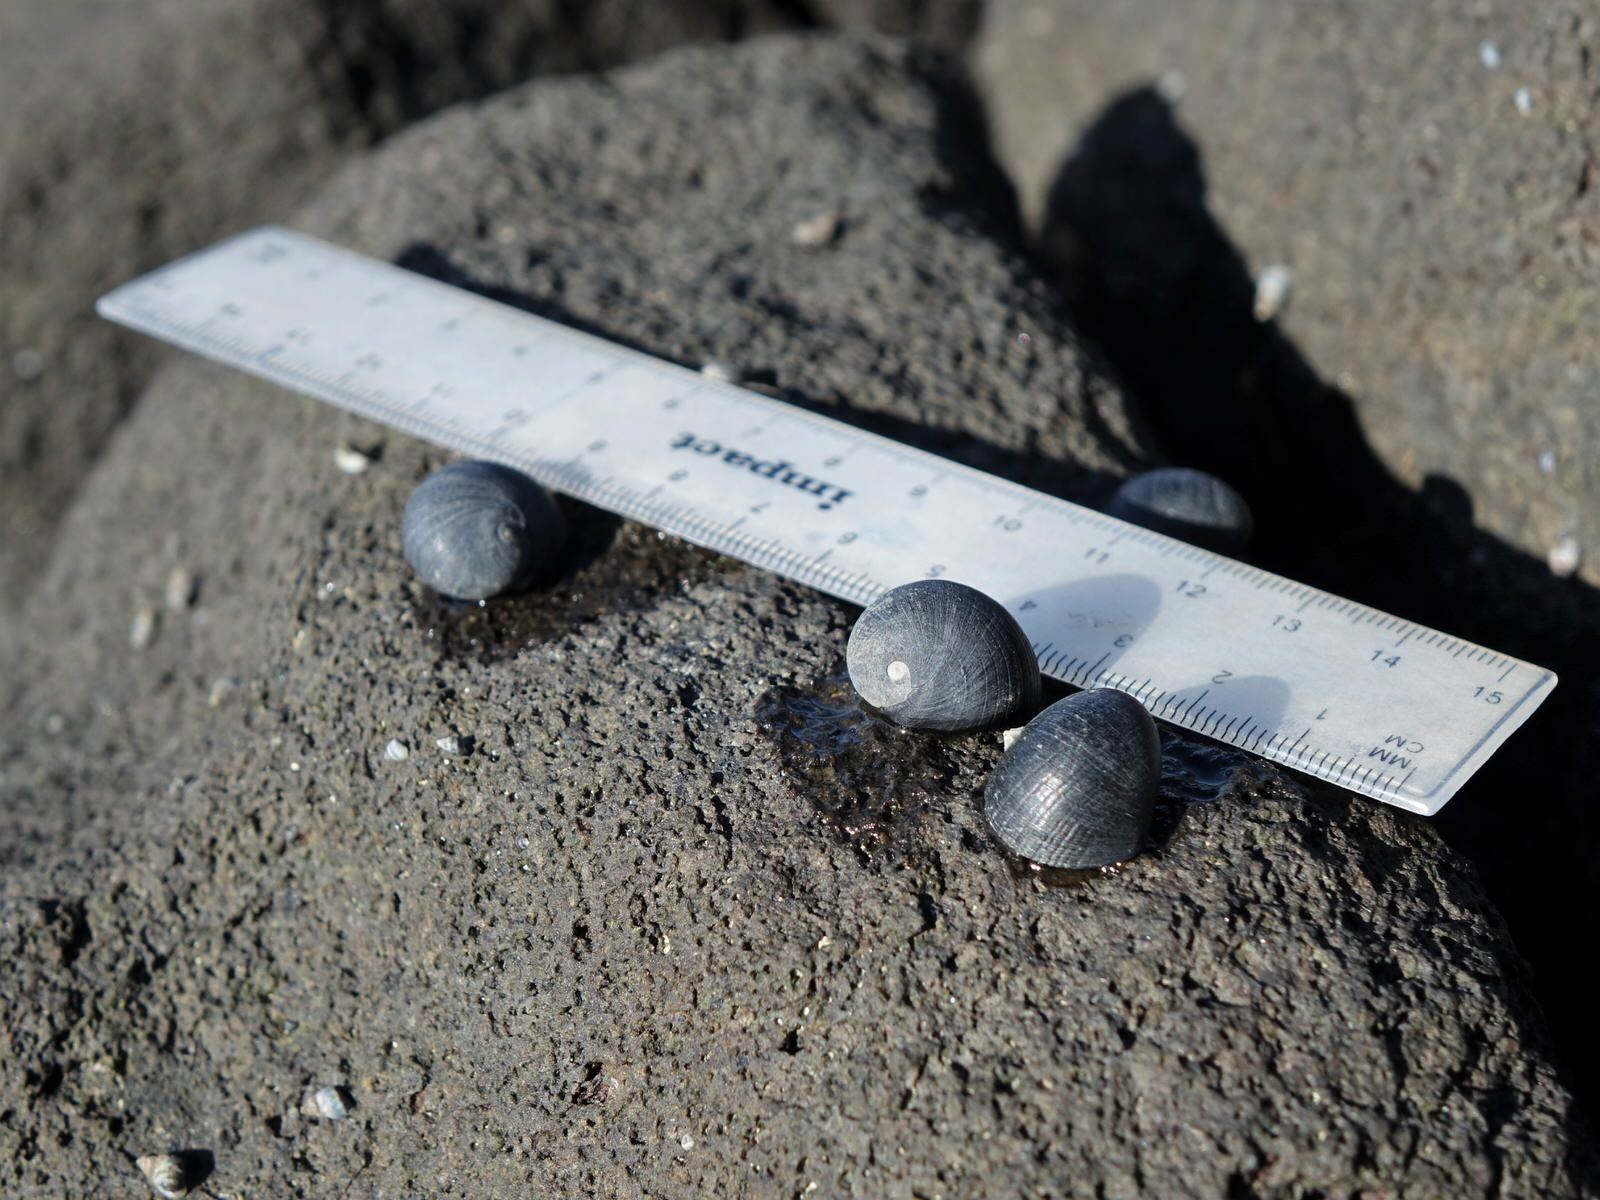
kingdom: Animalia
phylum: Mollusca
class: Gastropoda
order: Cycloneritida
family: Neritidae
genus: Nerita
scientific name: Nerita melanotragus
